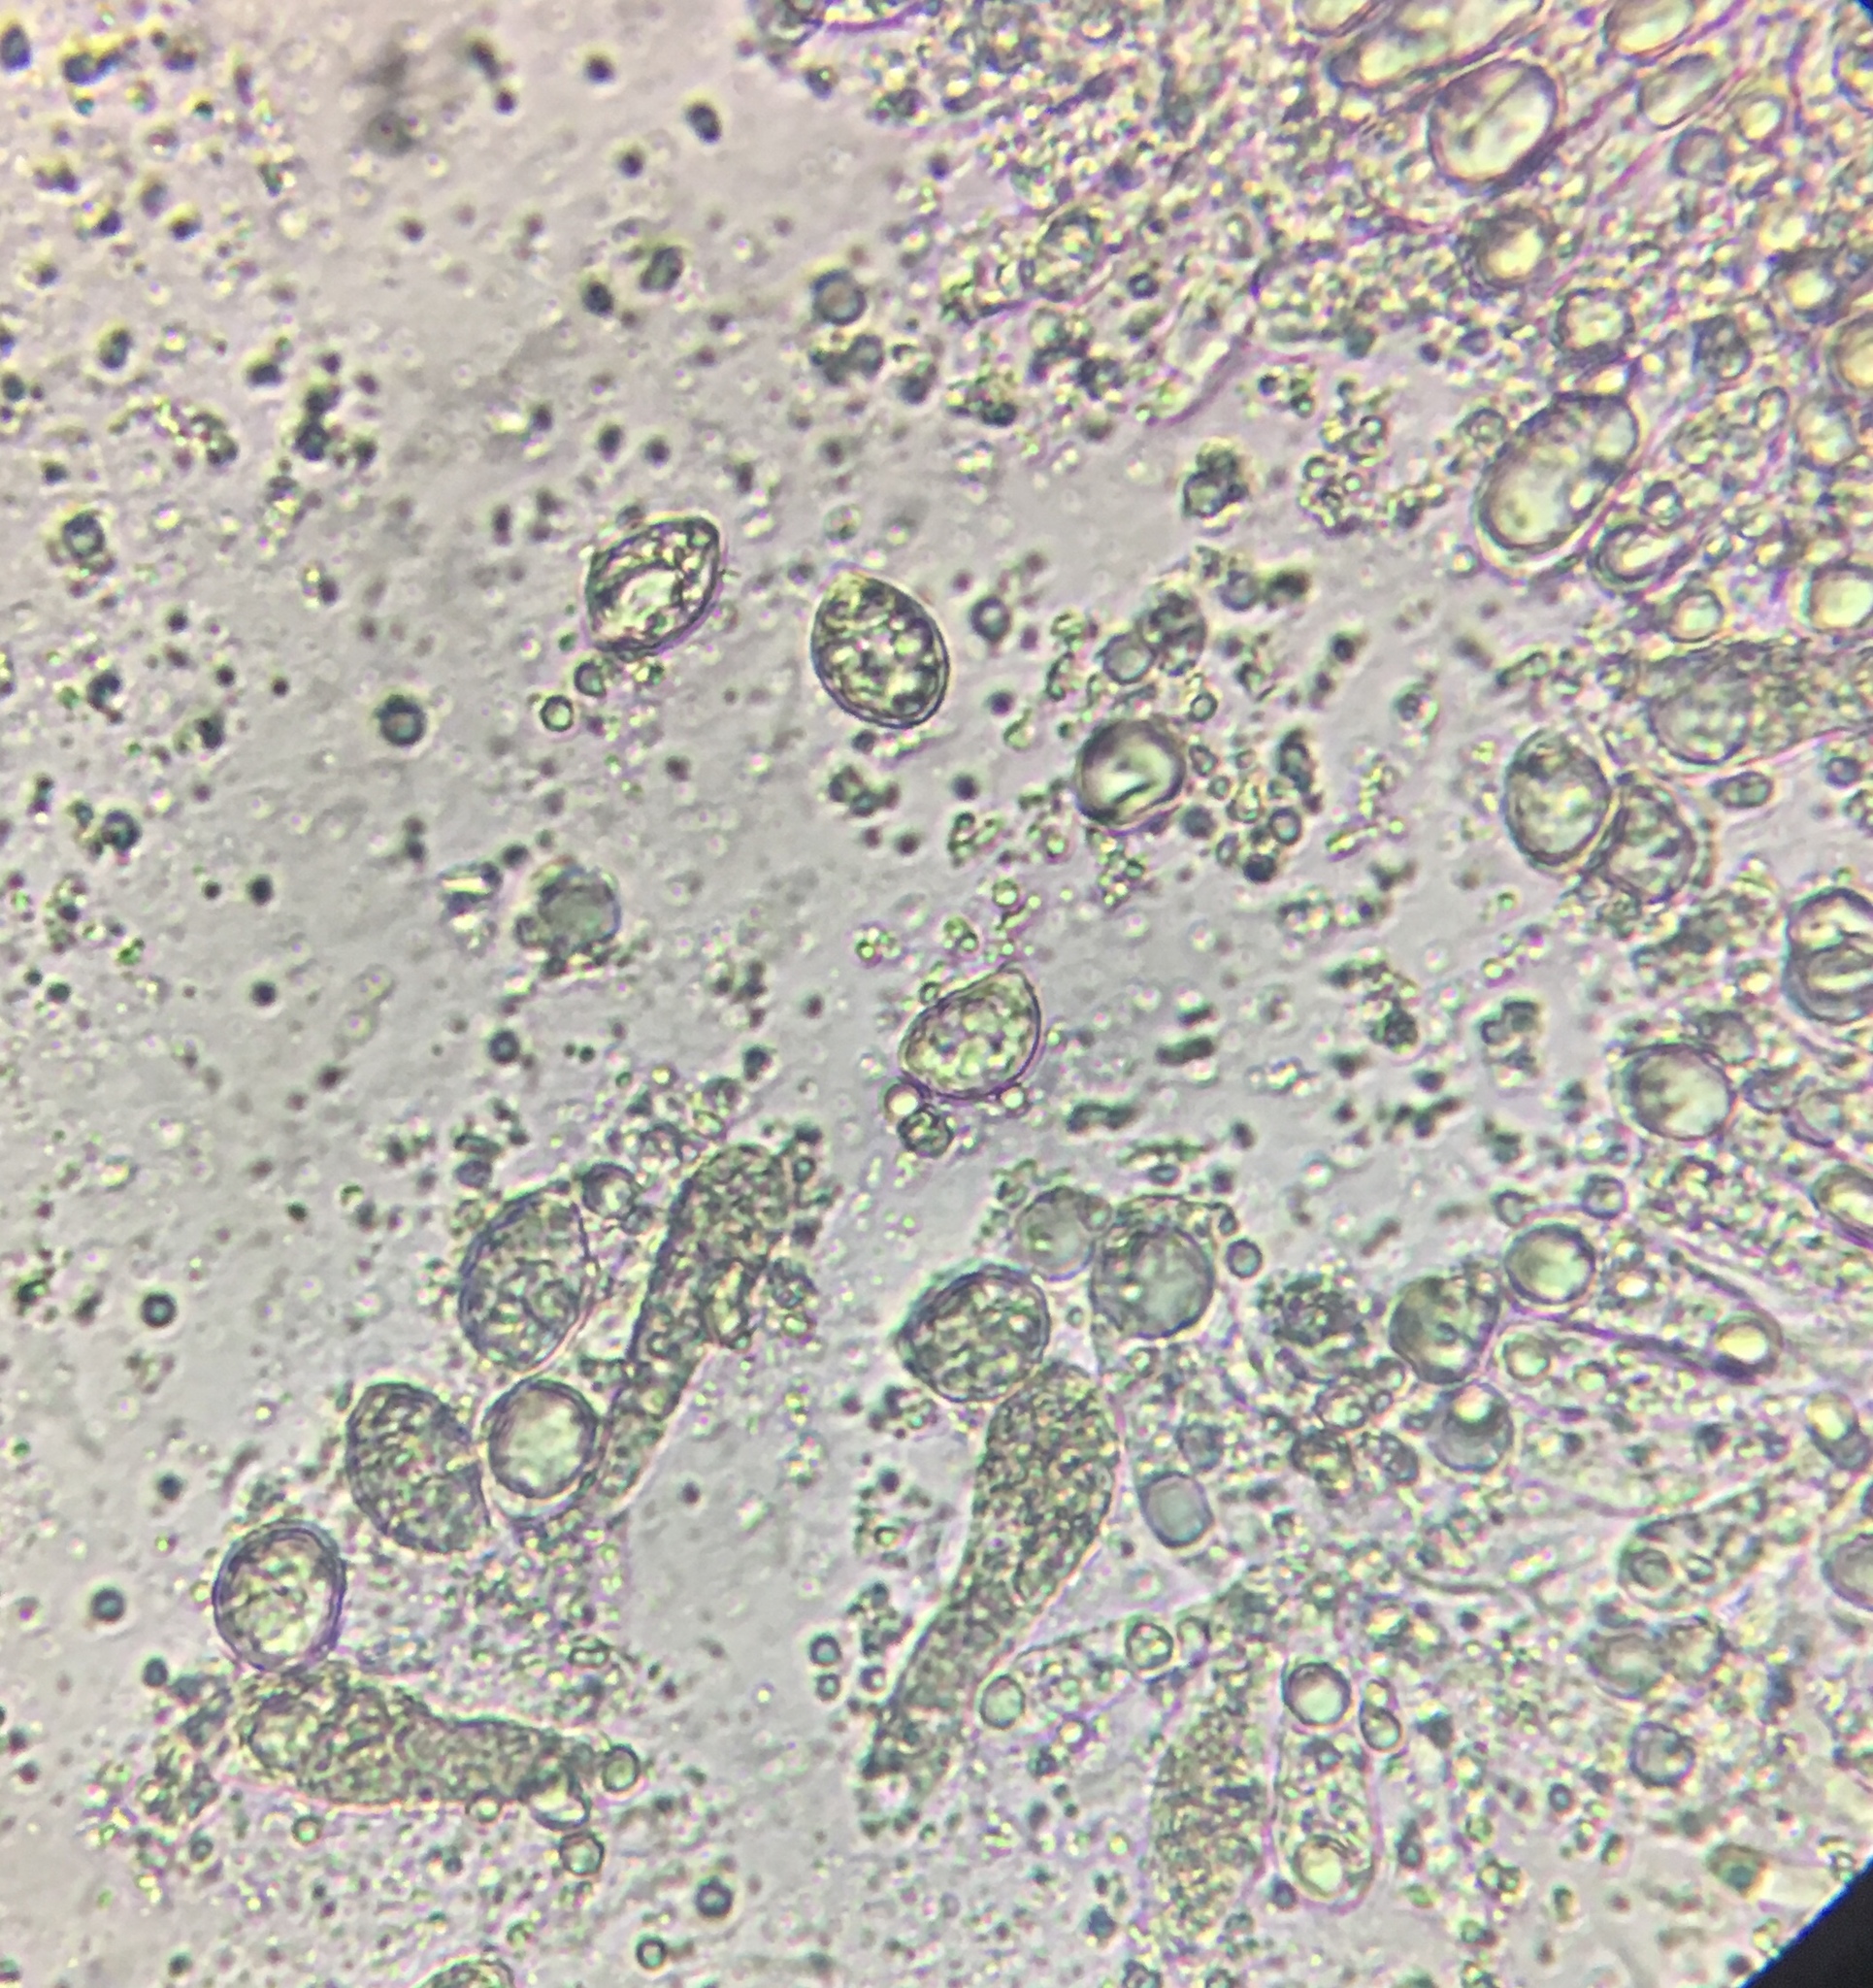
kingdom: Fungi
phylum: Basidiomycota
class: Agaricomycetes
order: Agaricales
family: Physalacriaceae
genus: Hymenopellis
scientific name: Hymenopellis furfuracea
